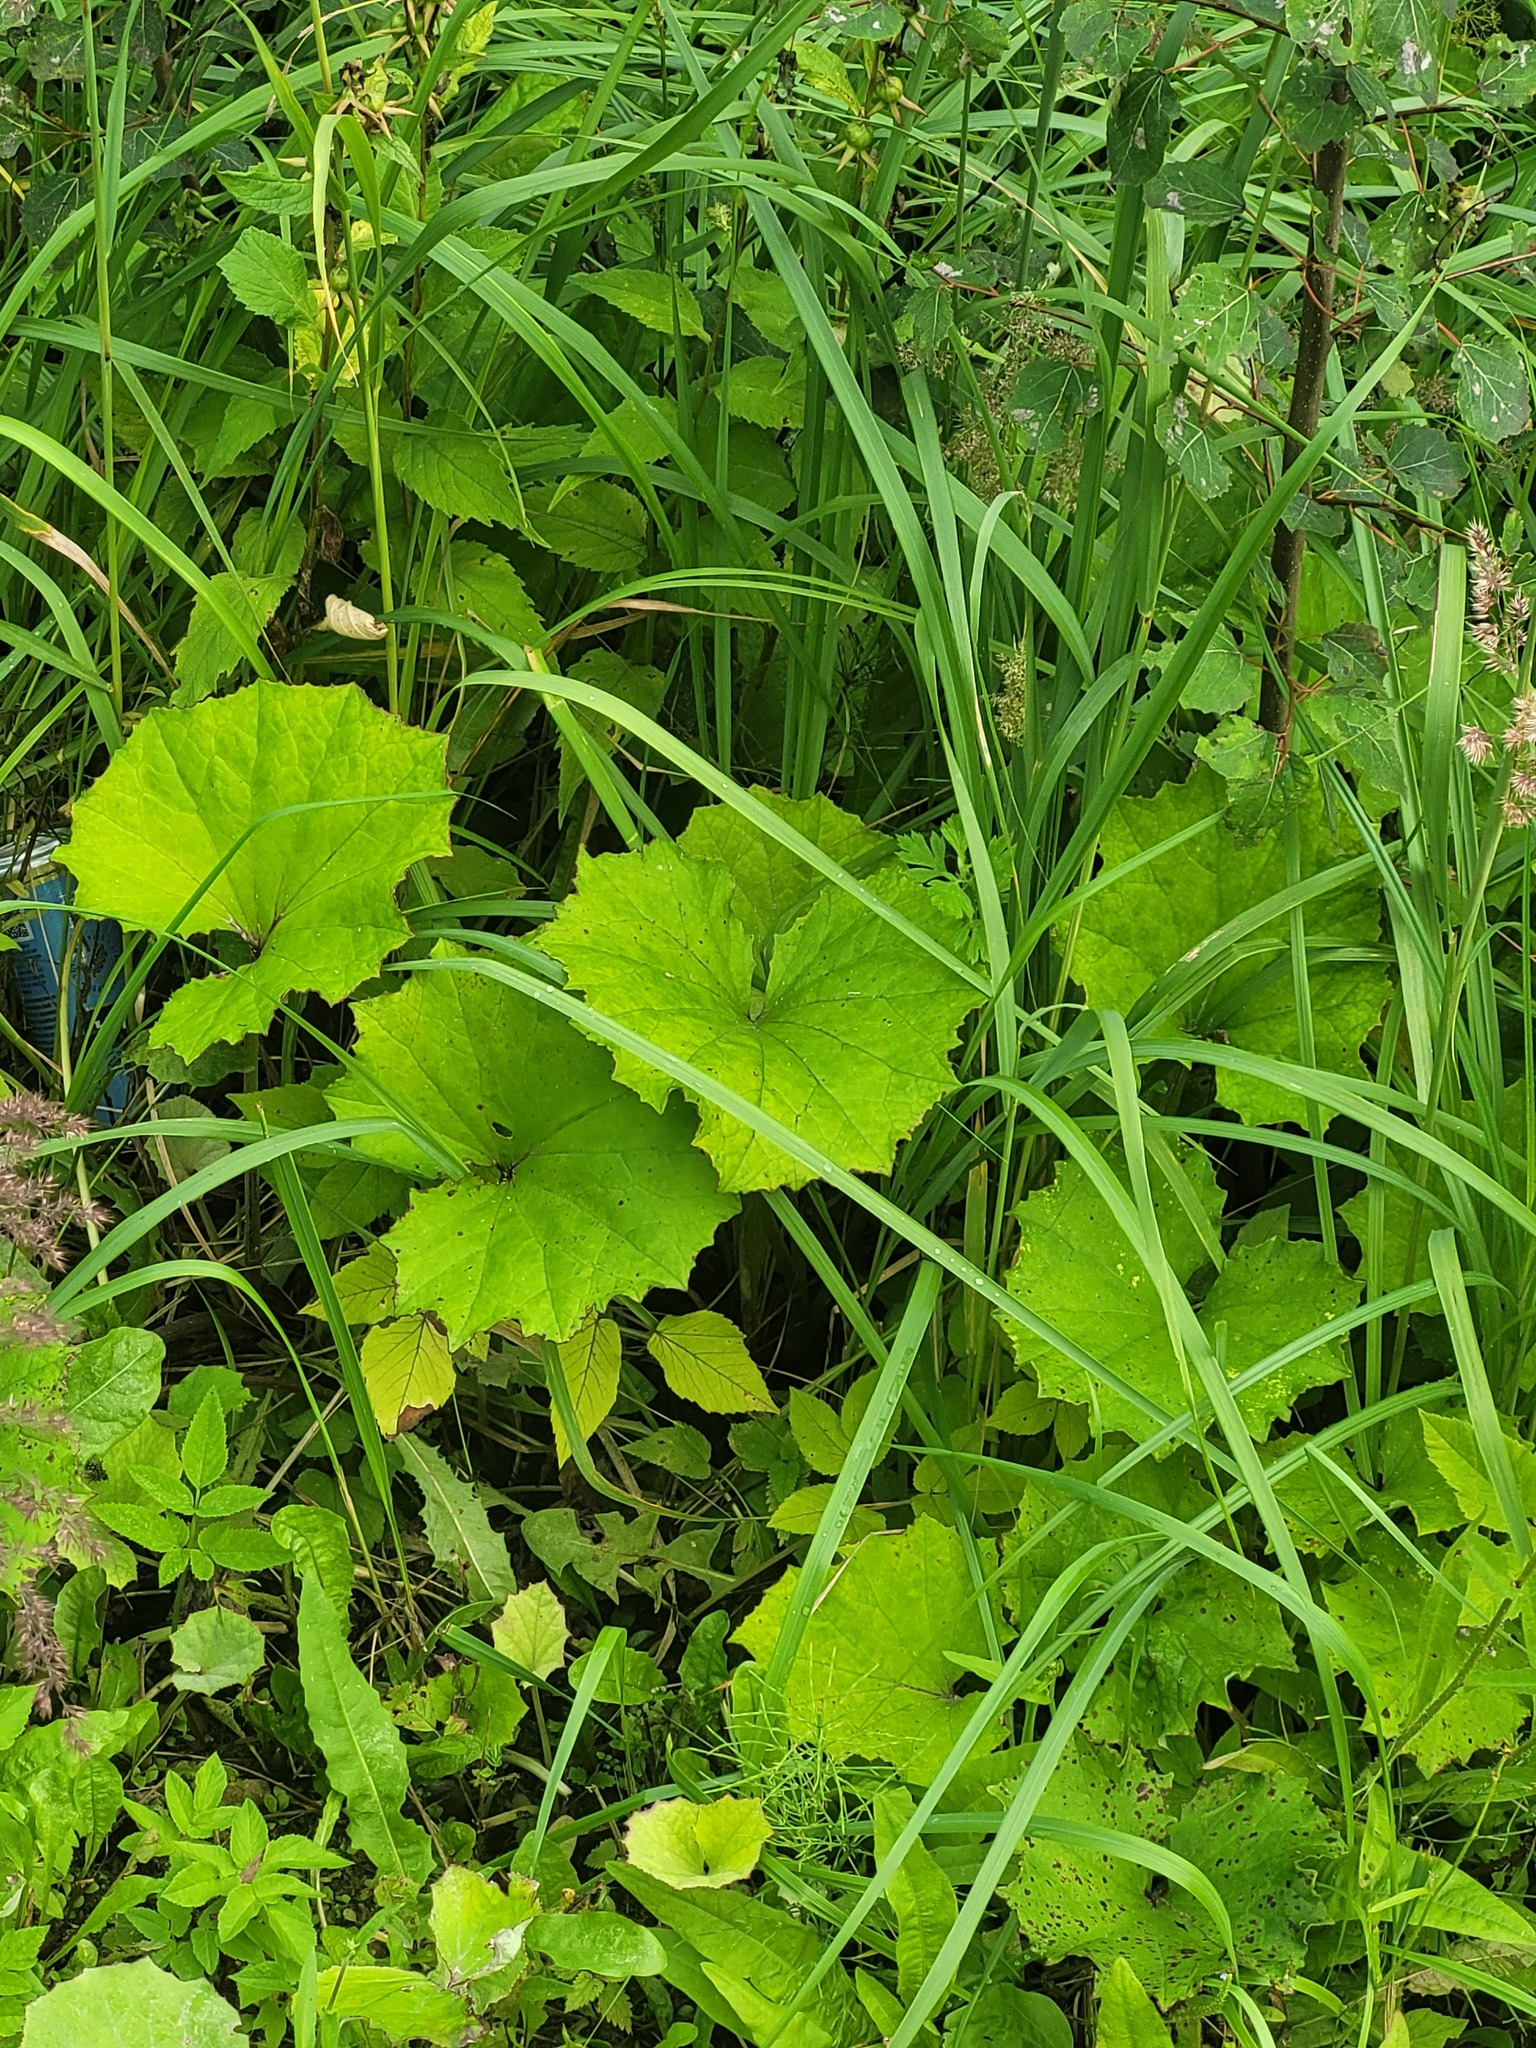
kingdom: Plantae
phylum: Tracheophyta
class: Magnoliopsida
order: Asterales
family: Asteraceae
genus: Tussilago
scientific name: Tussilago farfara
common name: Coltsfoot
